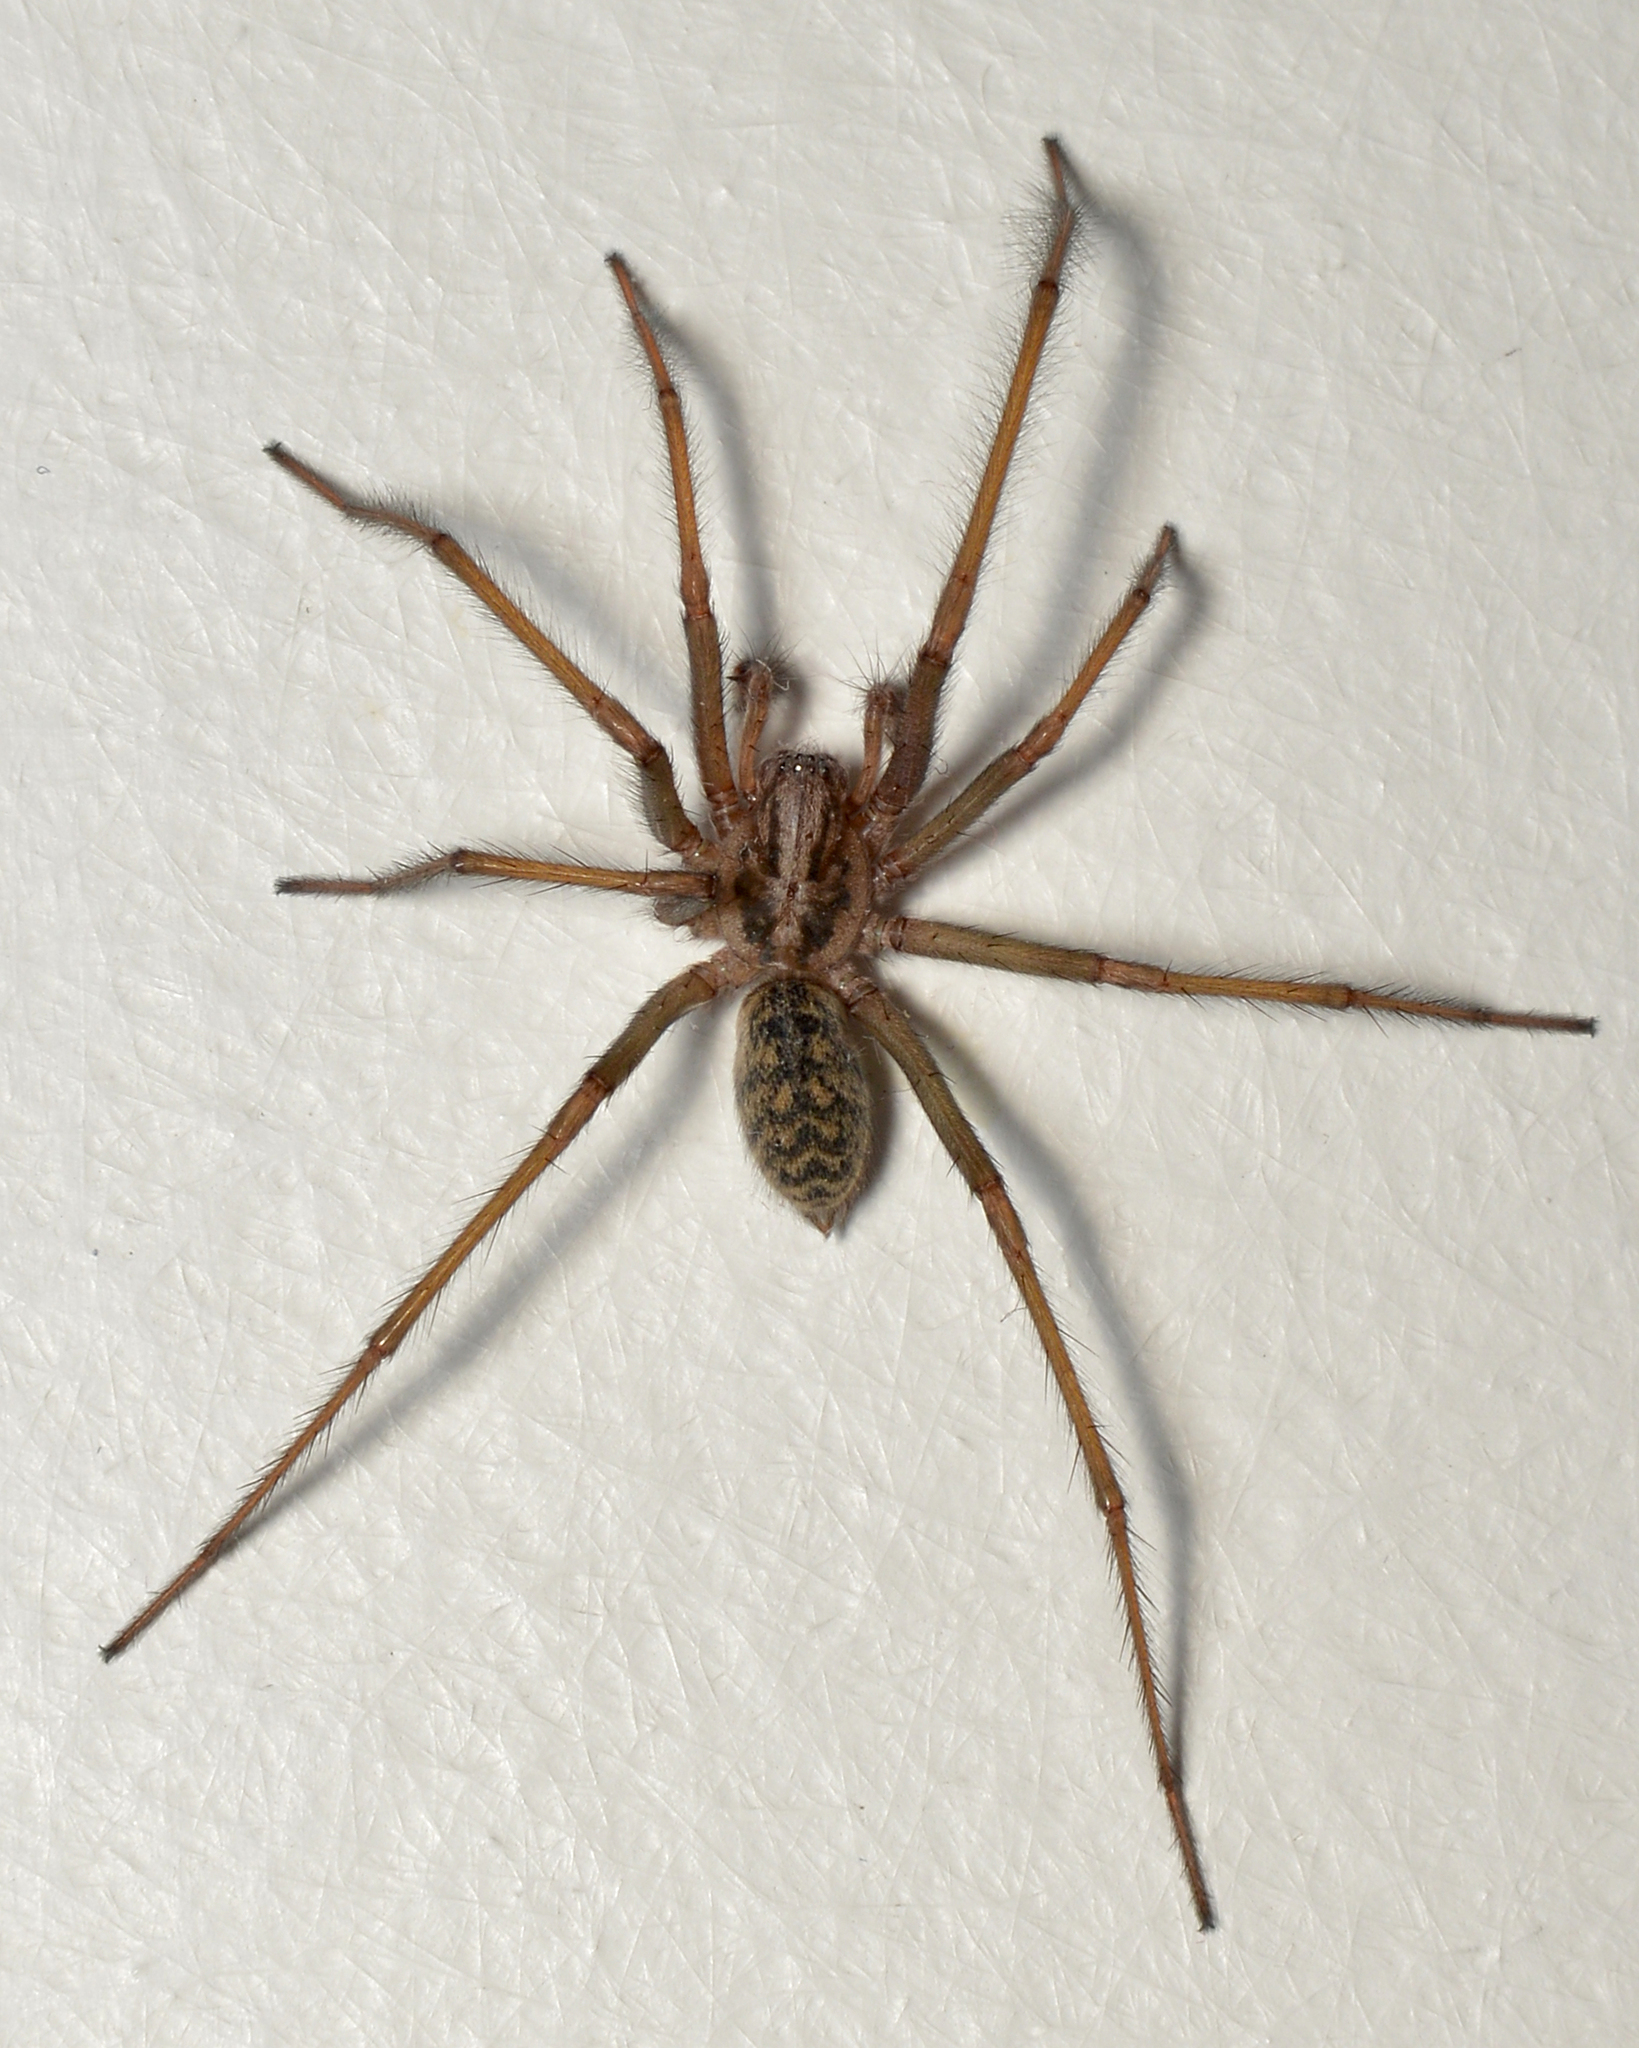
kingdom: Animalia
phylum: Arthropoda
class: Arachnida
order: Araneae
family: Agelenidae
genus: Eratigena
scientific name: Eratigena atrica
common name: Giant house spider
